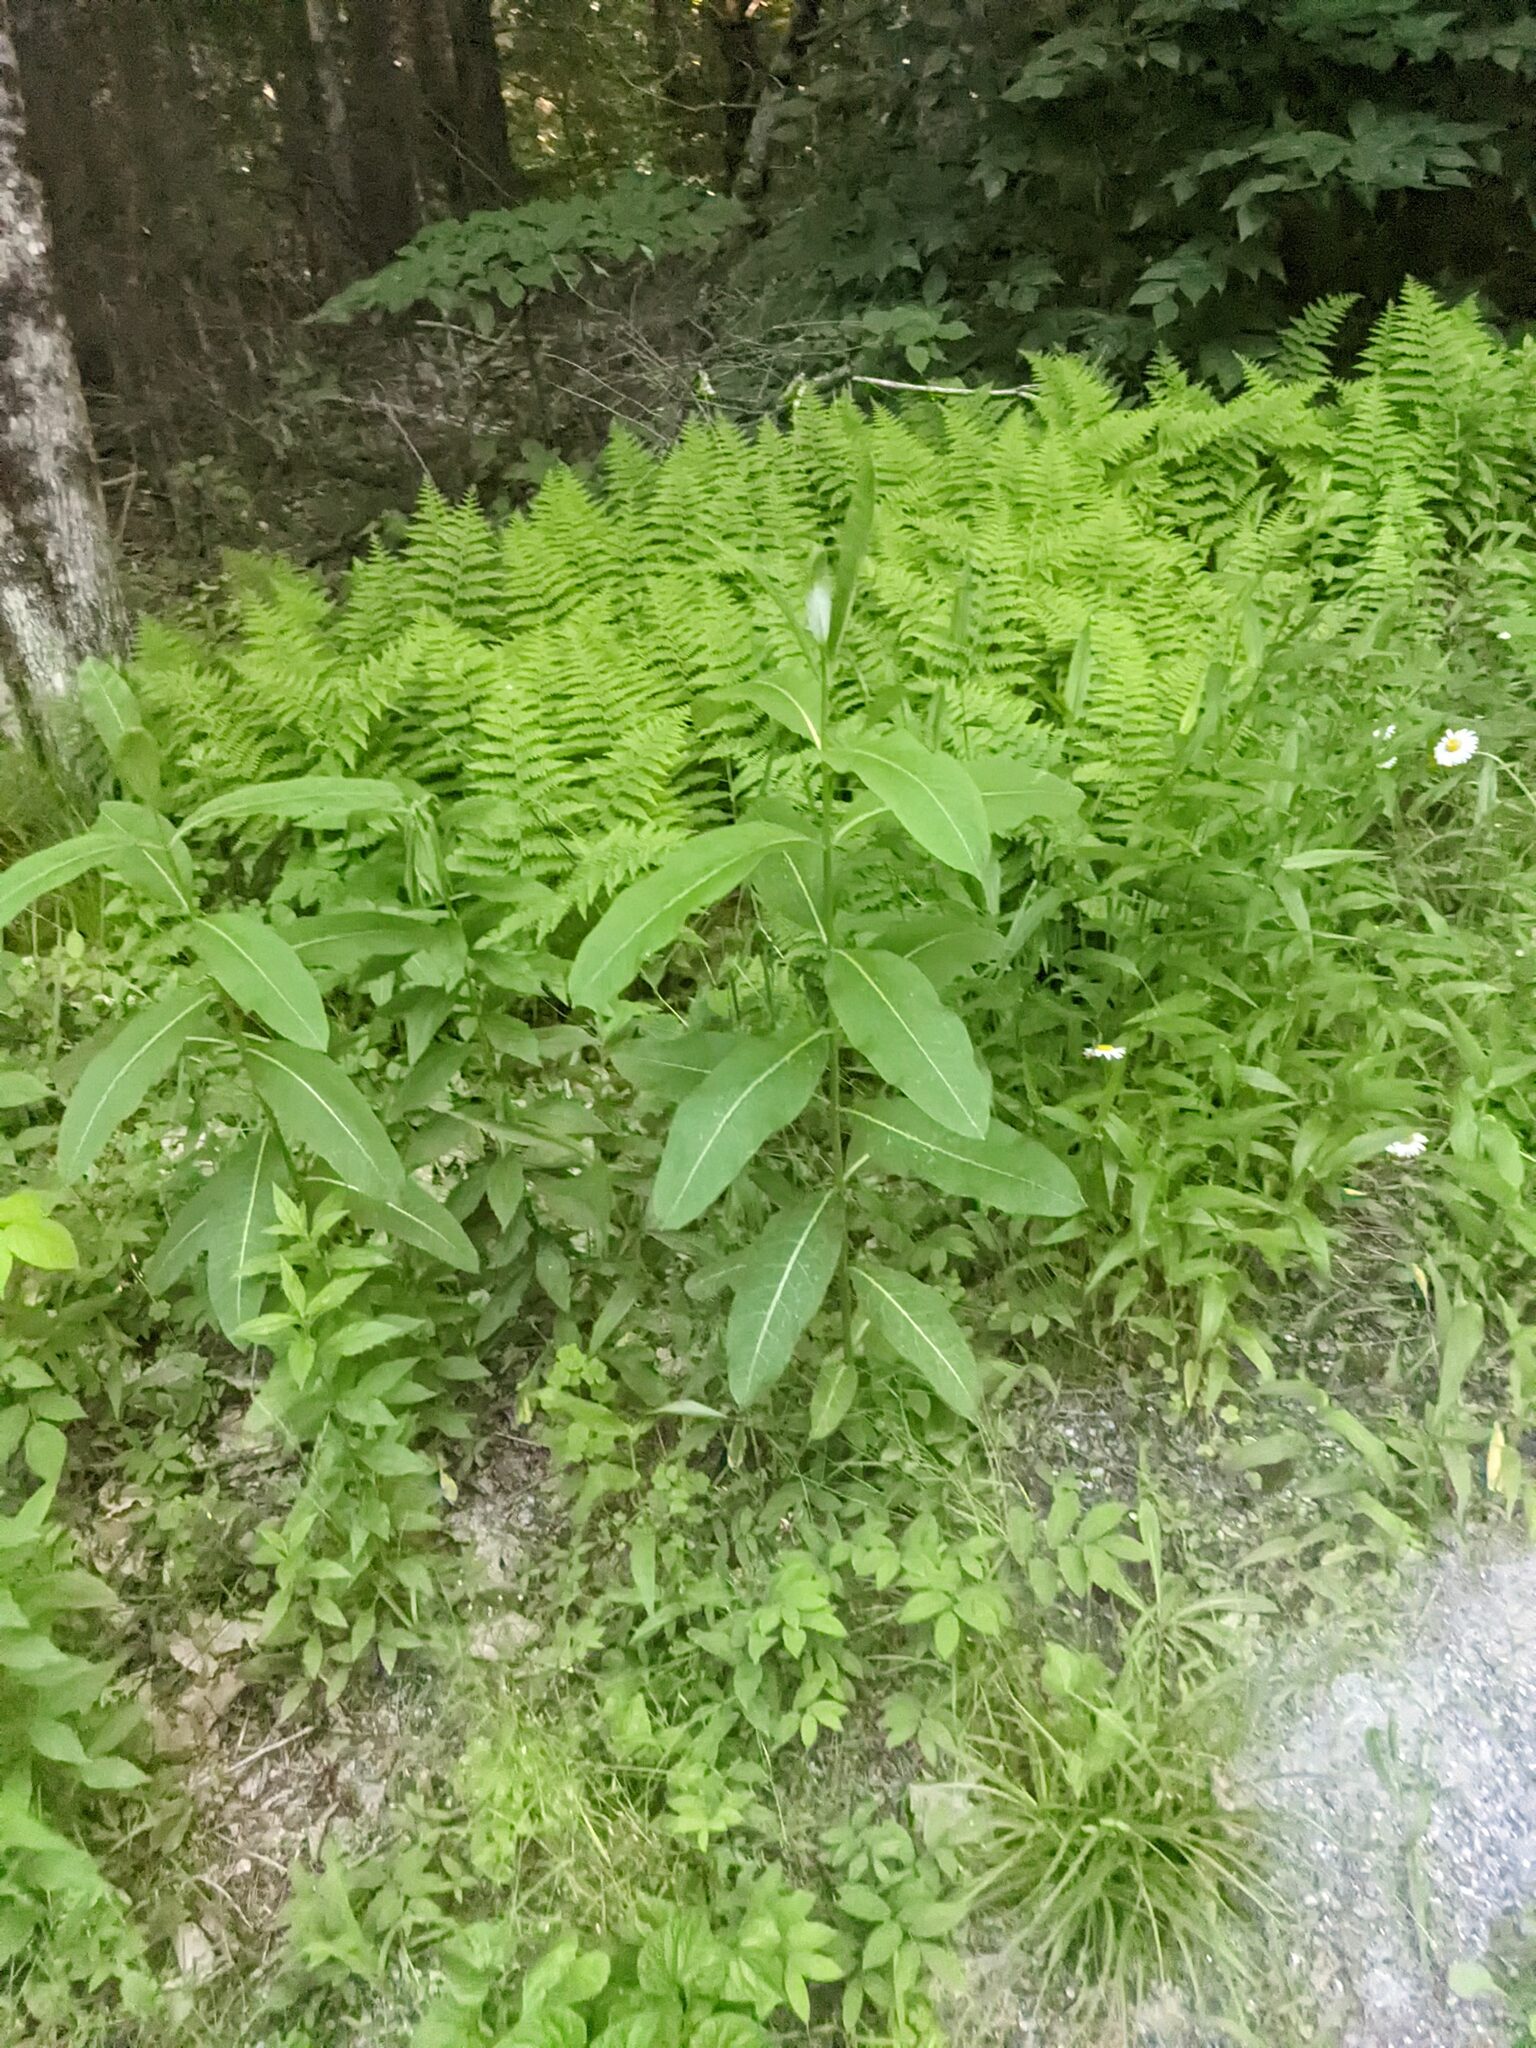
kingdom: Plantae
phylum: Tracheophyta
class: Magnoliopsida
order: Gentianales
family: Apocynaceae
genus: Asclepias
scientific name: Asclepias syriaca
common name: Common milkweed
